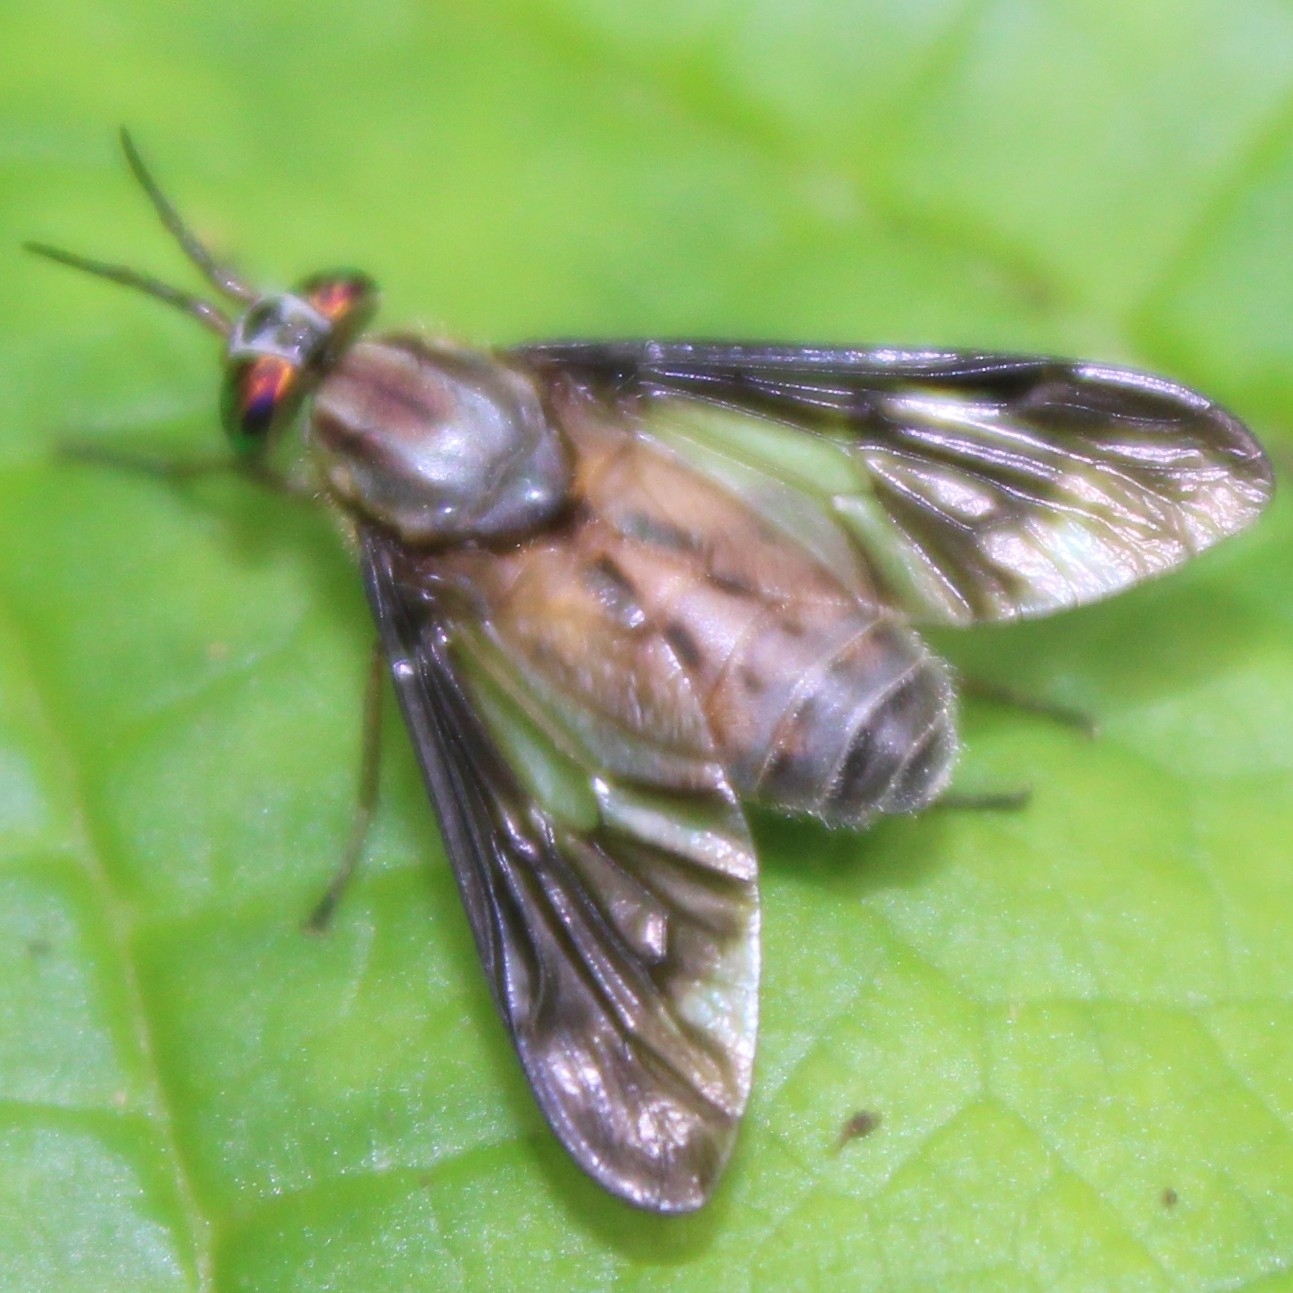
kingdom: Animalia
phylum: Arthropoda
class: Insecta
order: Diptera
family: Tabanidae
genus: Chrysops
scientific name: Chrysops moechus
